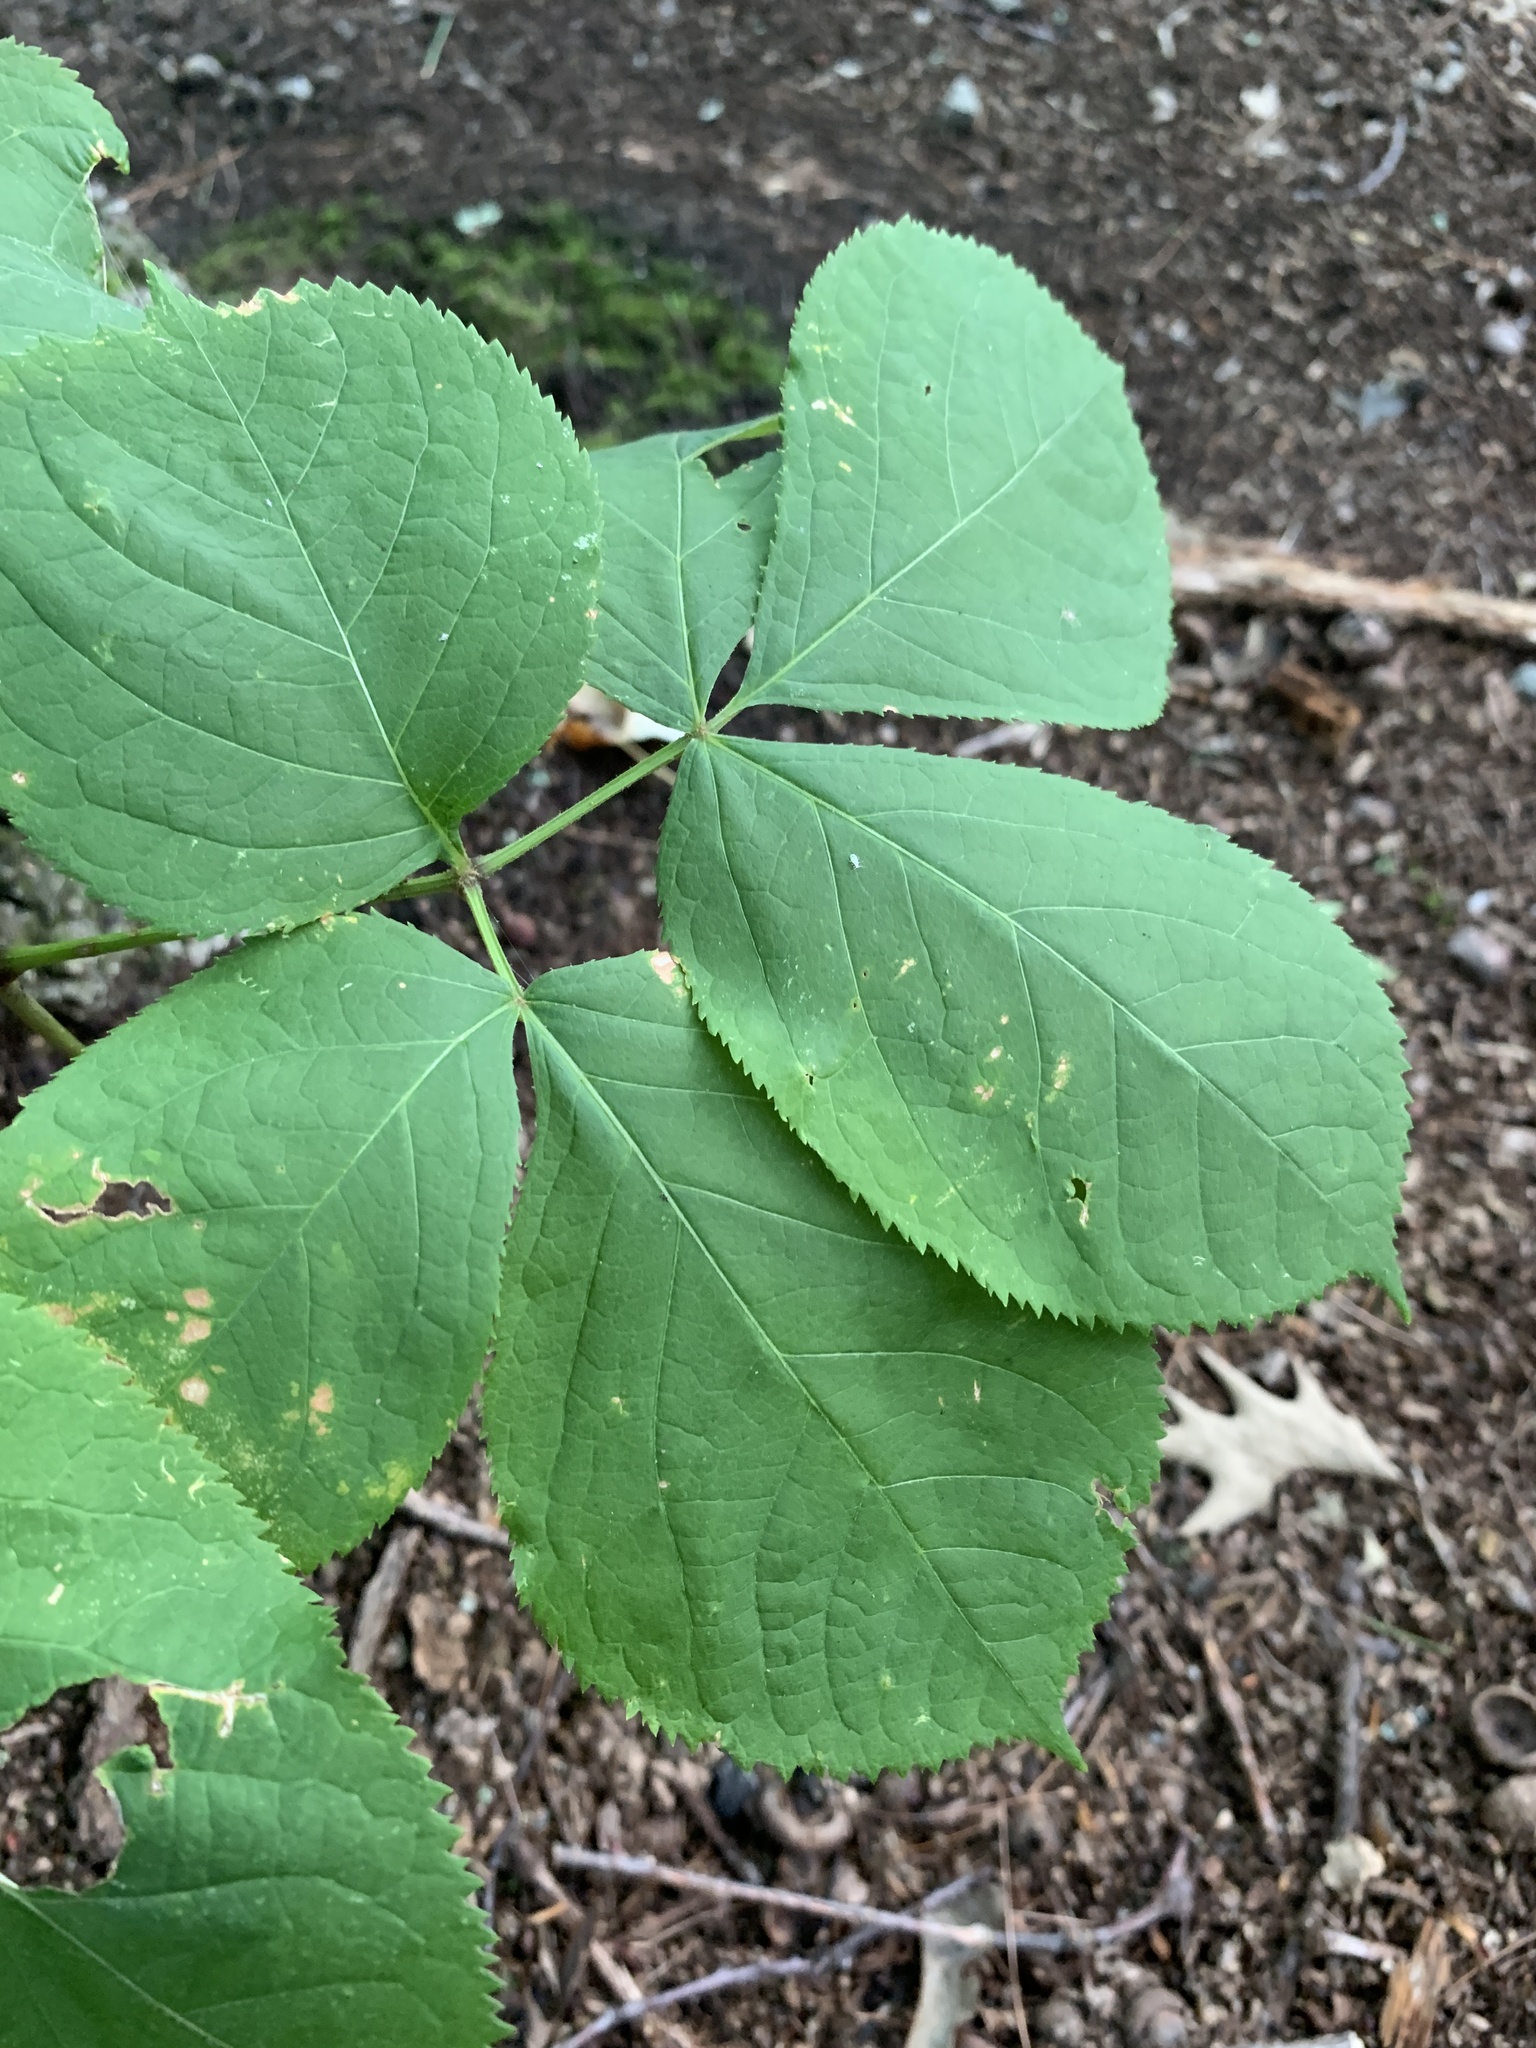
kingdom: Plantae
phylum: Tracheophyta
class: Magnoliopsida
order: Apiales
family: Araliaceae
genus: Aralia
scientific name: Aralia nudicaulis
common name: Wild sarsaparilla
